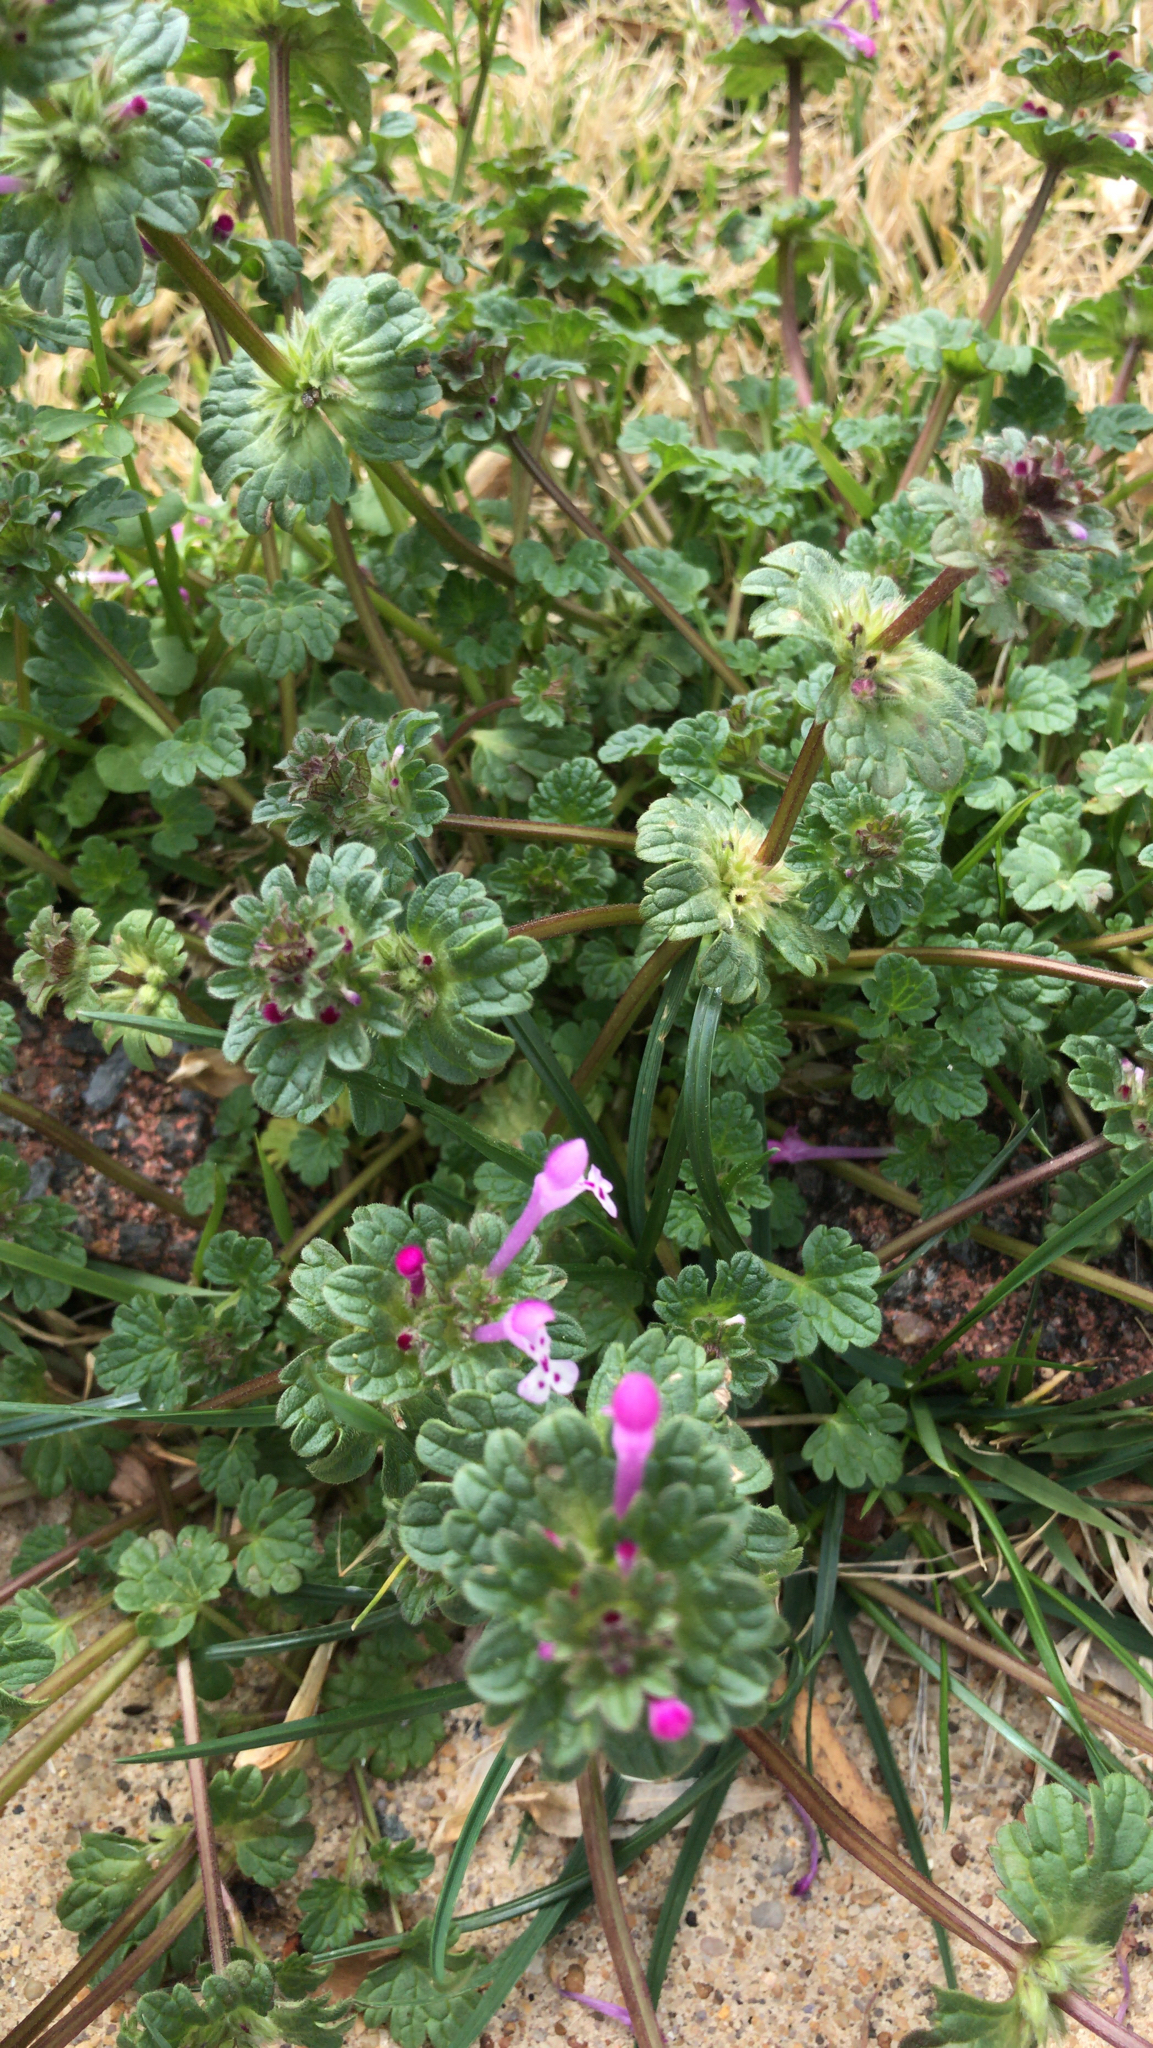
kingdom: Plantae
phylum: Tracheophyta
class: Magnoliopsida
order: Lamiales
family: Lamiaceae
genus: Lamium
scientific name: Lamium amplexicaule
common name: Henbit dead-nettle
